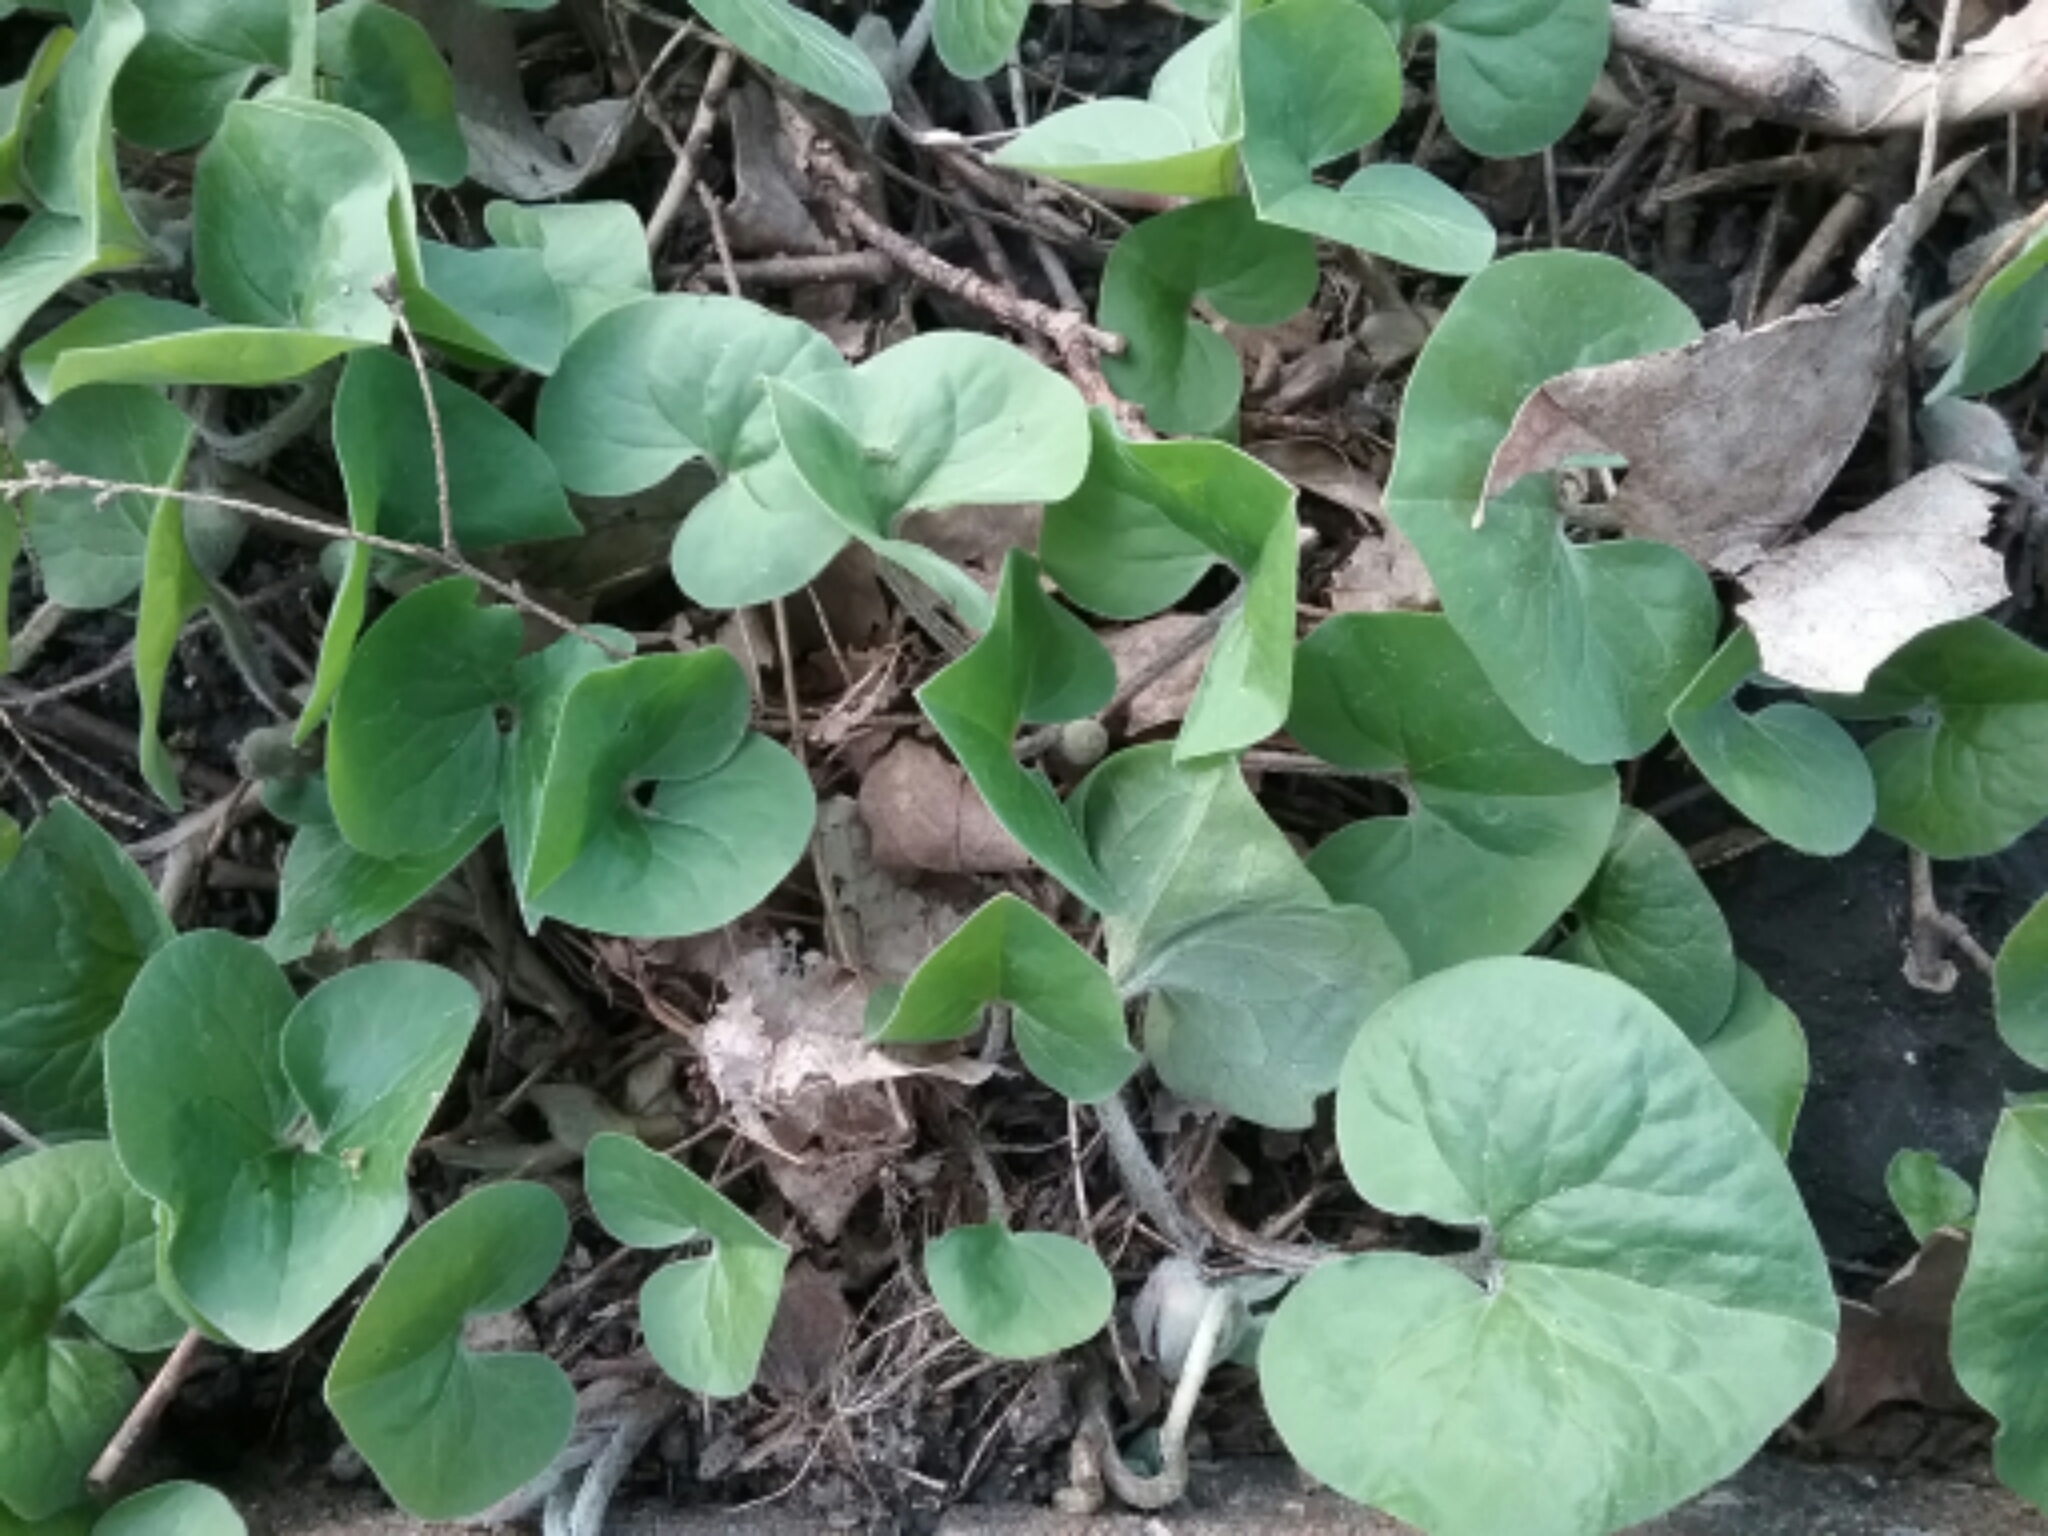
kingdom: Plantae
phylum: Tracheophyta
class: Magnoliopsida
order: Piperales
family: Aristolochiaceae
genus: Asarum
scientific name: Asarum canadense
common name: Wild ginger
